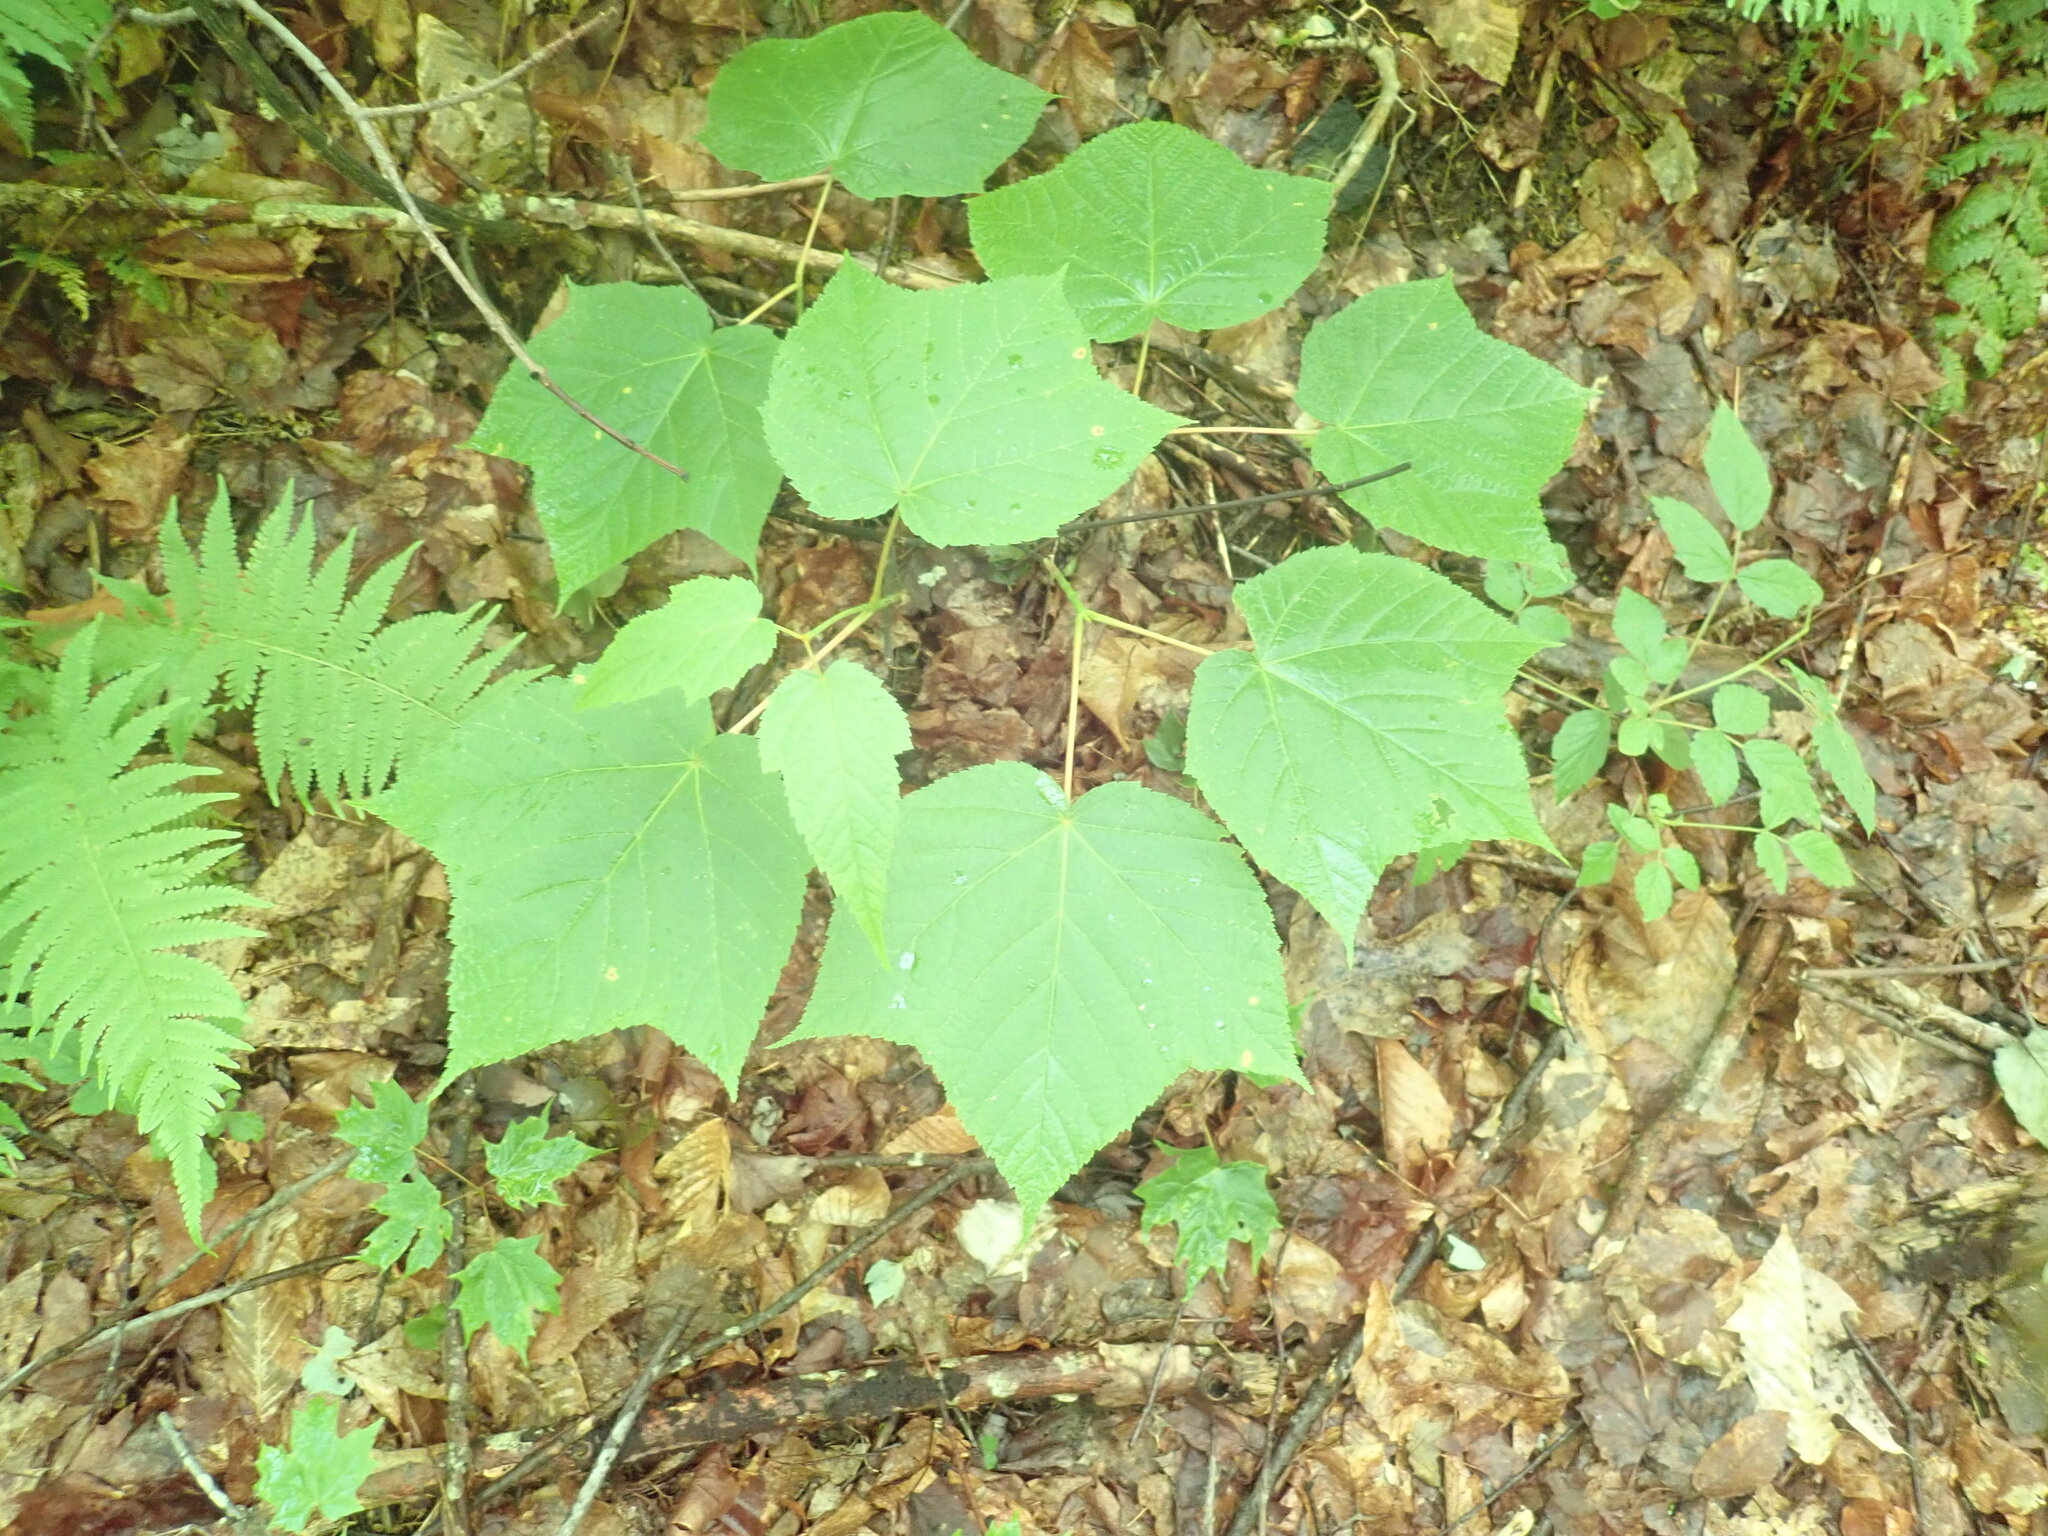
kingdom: Plantae
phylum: Tracheophyta
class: Magnoliopsida
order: Sapindales
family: Sapindaceae
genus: Acer
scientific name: Acer pensylvanicum
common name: Moosewood
